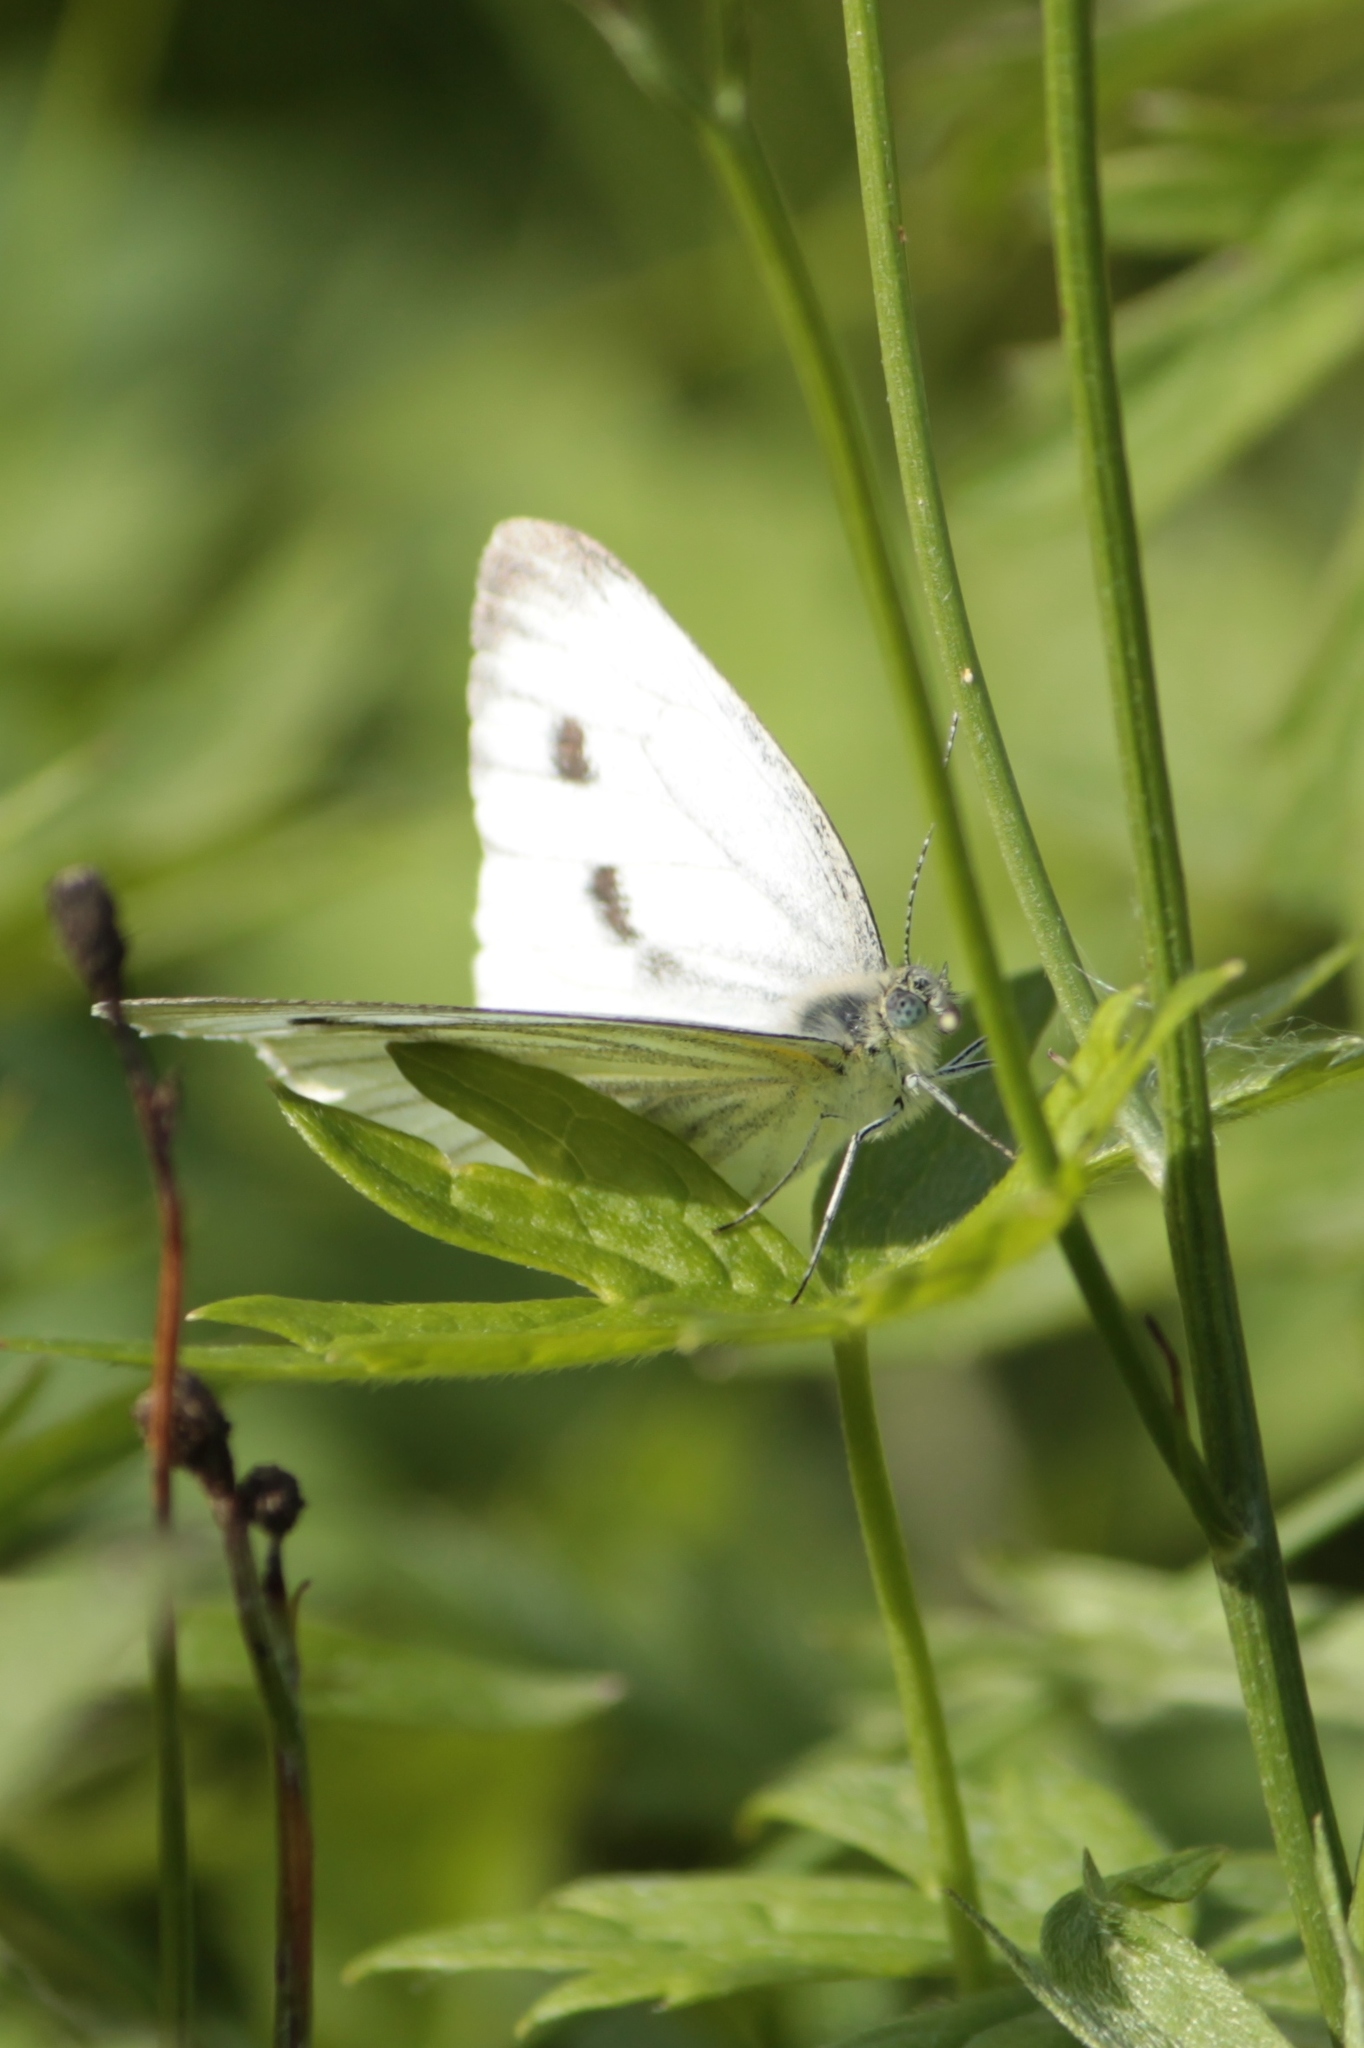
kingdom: Animalia
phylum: Arthropoda
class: Insecta
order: Lepidoptera
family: Pieridae
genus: Pieris
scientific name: Pieris napi
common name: Green-veined white
